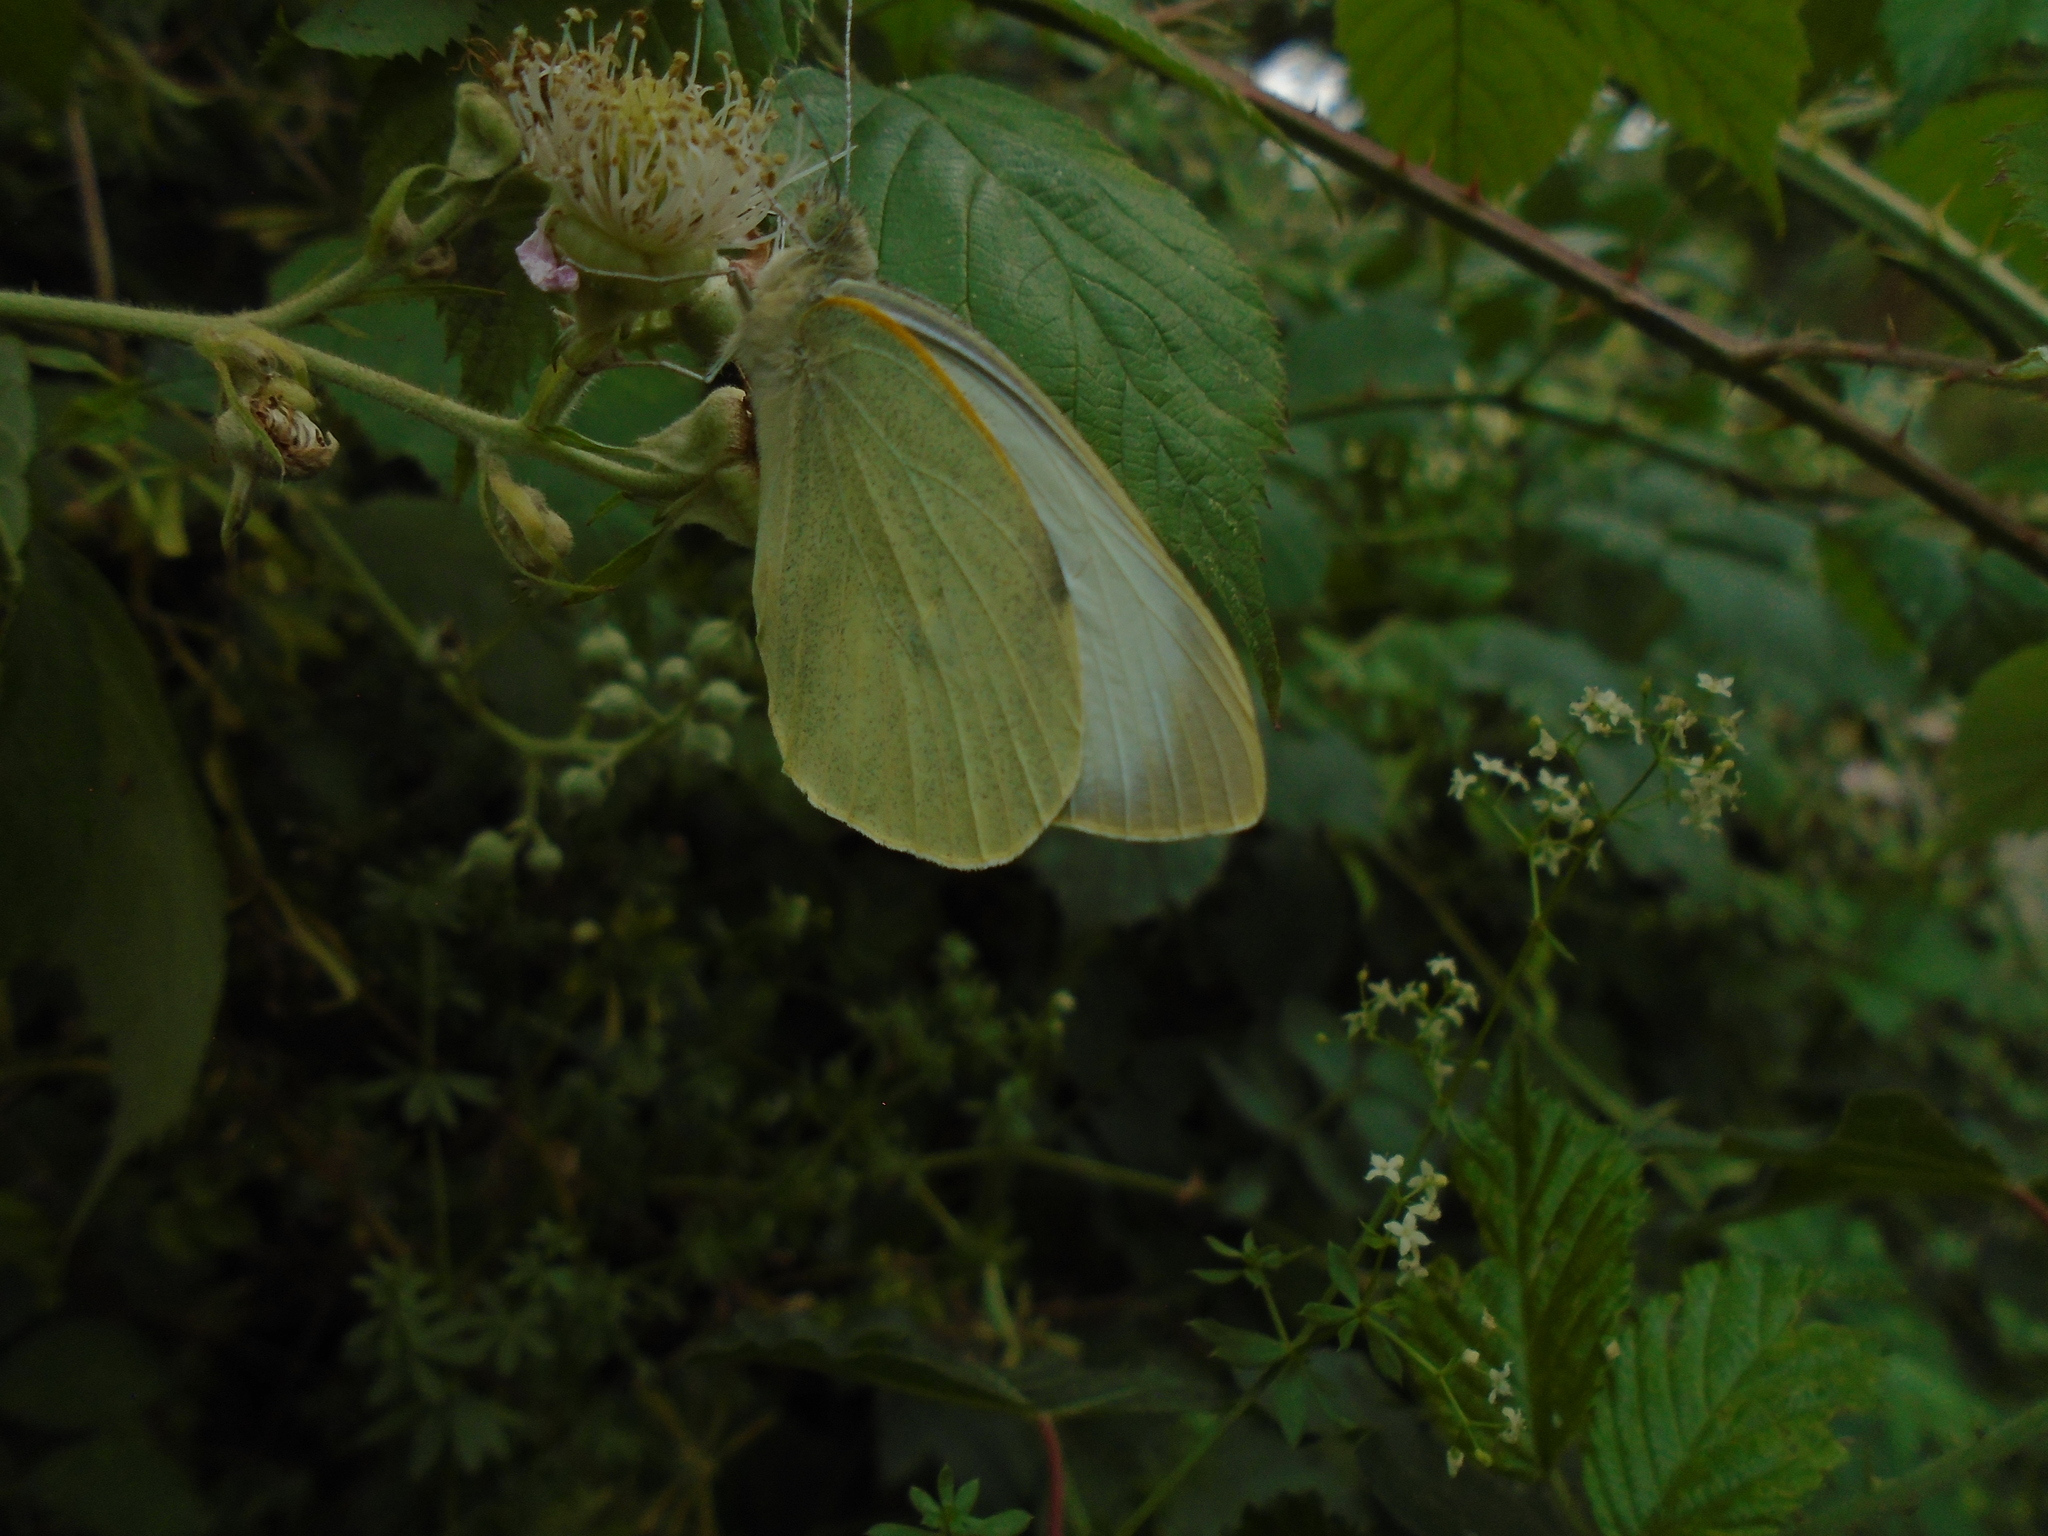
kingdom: Animalia
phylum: Arthropoda
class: Insecta
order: Lepidoptera
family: Pieridae
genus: Pieris
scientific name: Pieris brassicae
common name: Large white
